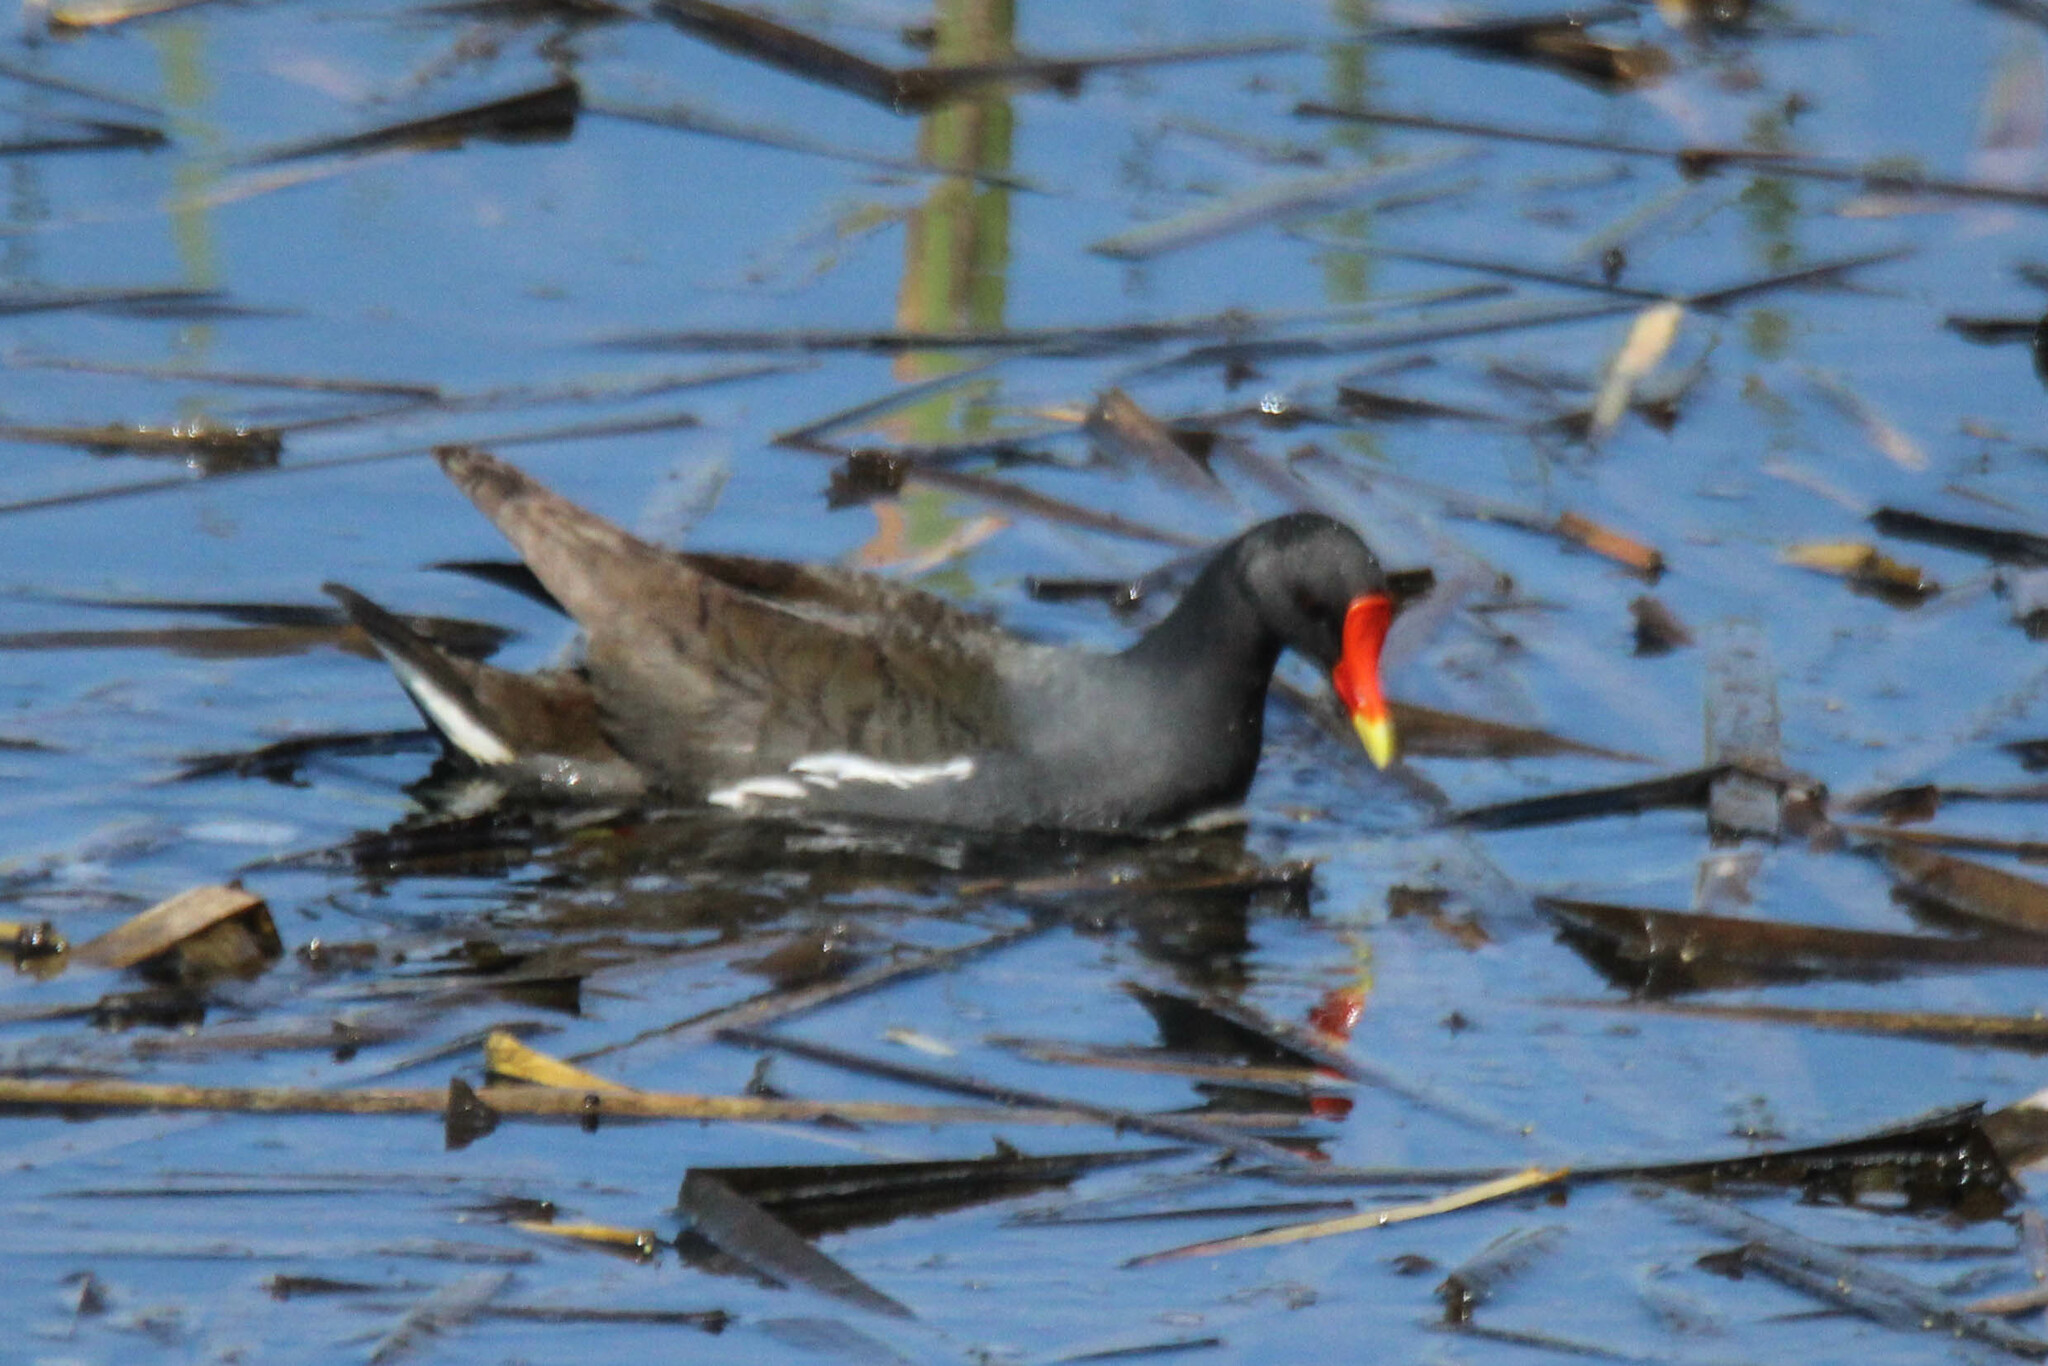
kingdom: Animalia
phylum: Chordata
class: Aves
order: Gruiformes
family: Rallidae
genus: Gallinula
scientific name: Gallinula chloropus
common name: Common moorhen
